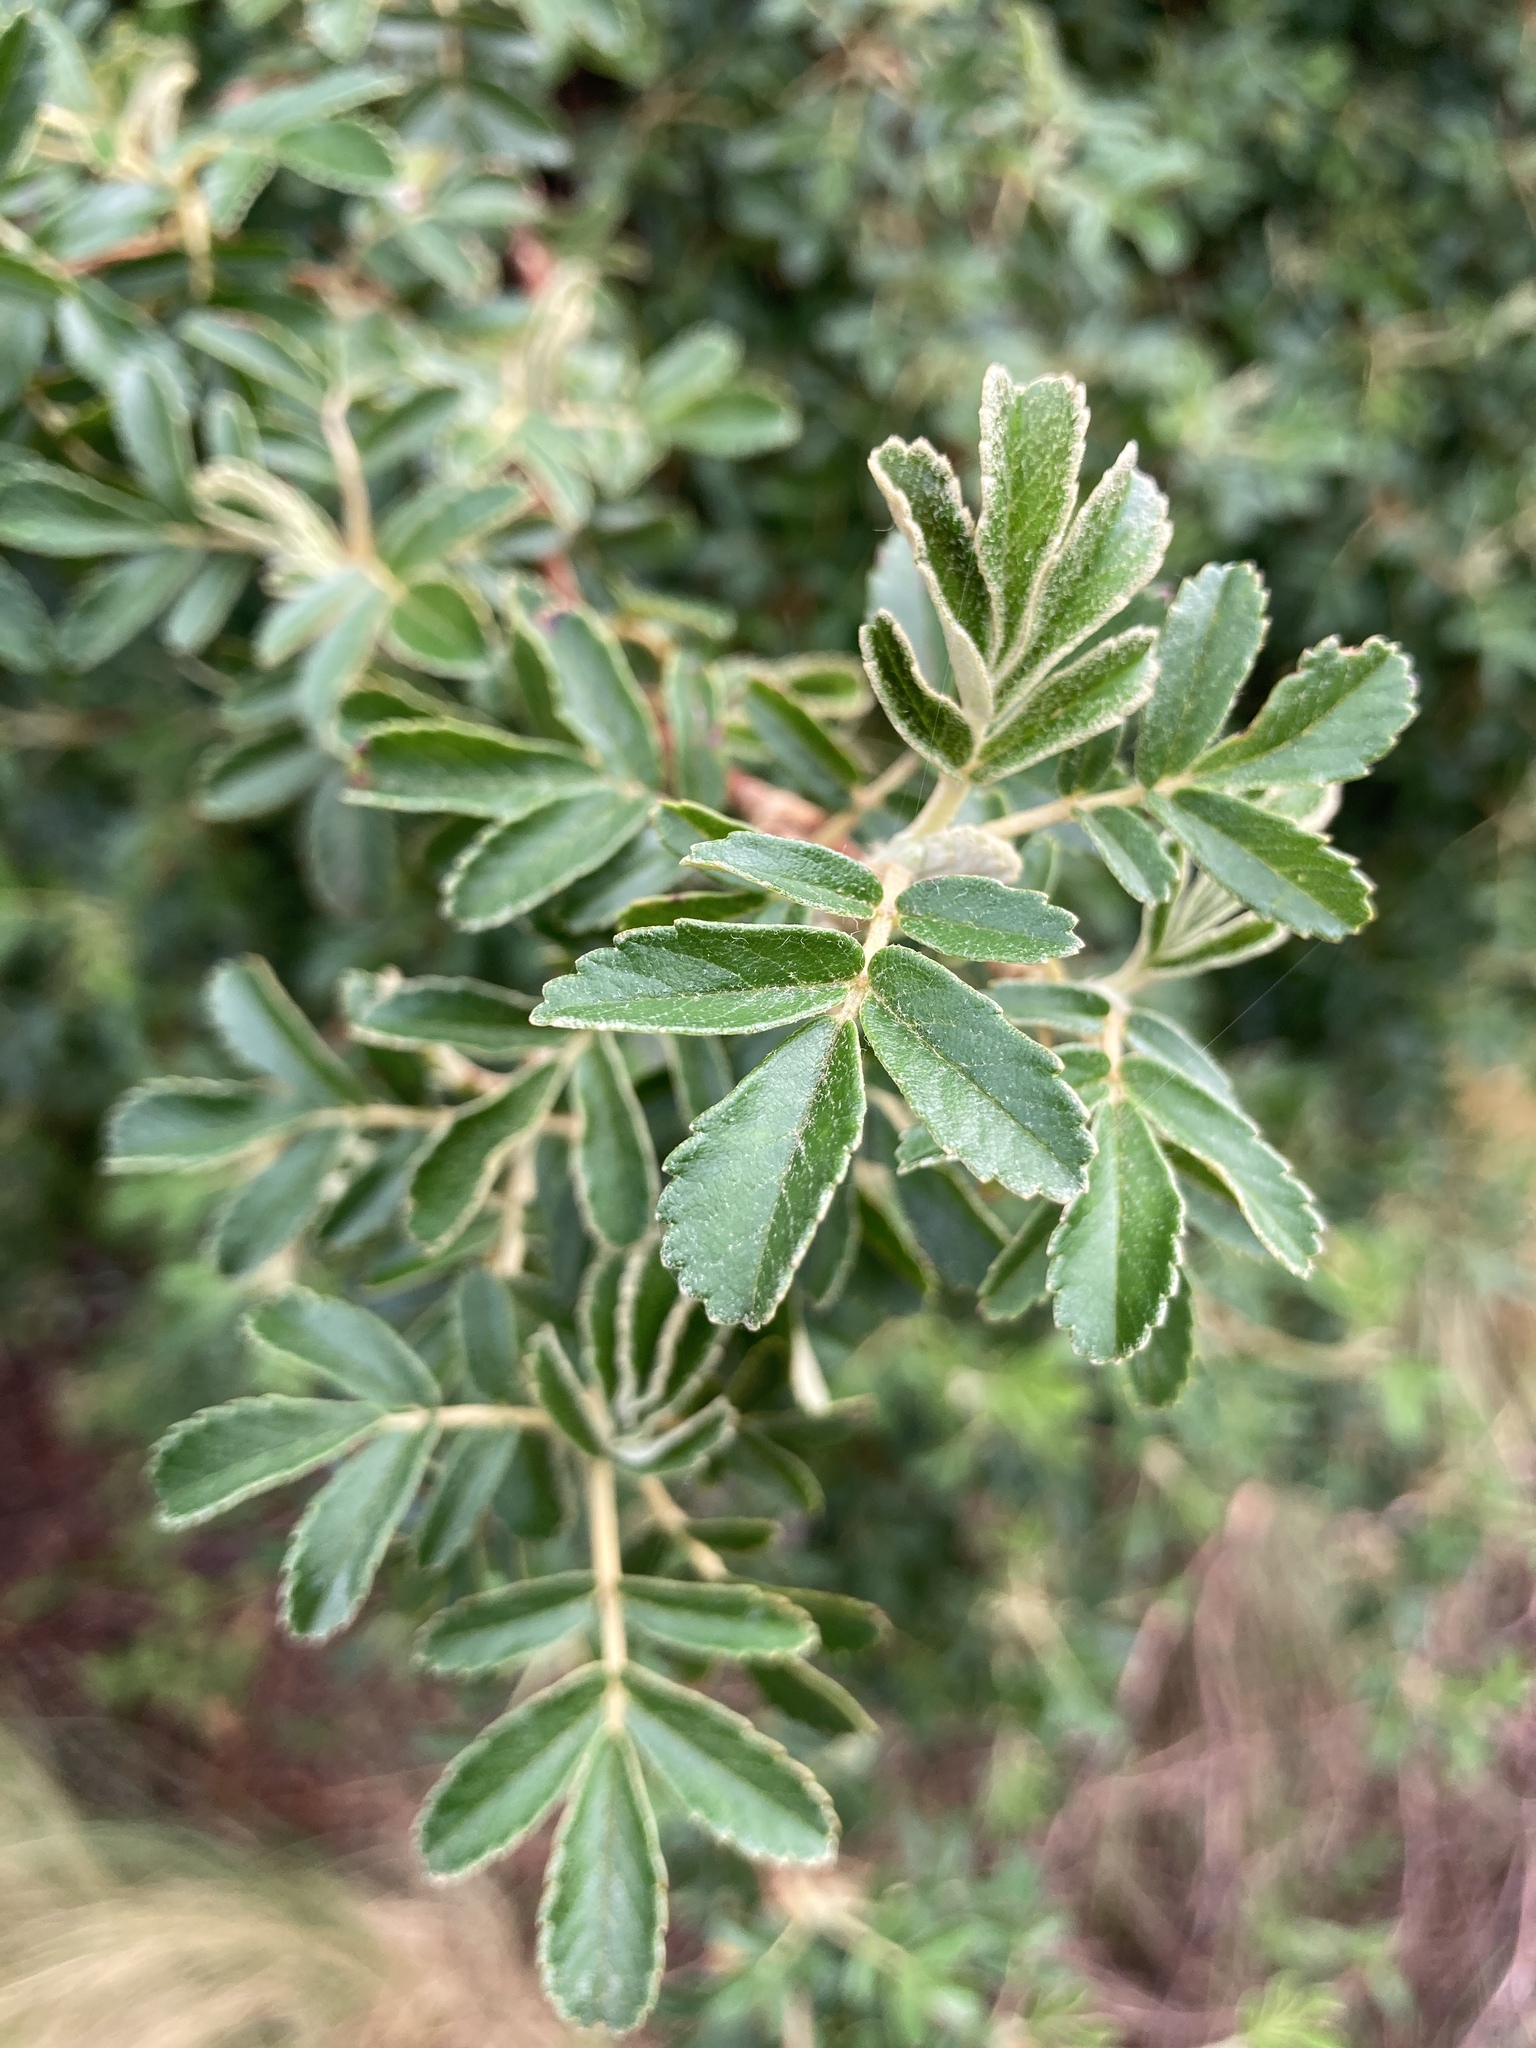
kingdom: Plantae
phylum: Tracheophyta
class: Magnoliopsida
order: Rosales
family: Rosaceae
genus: Polylepis
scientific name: Polylepis australis
